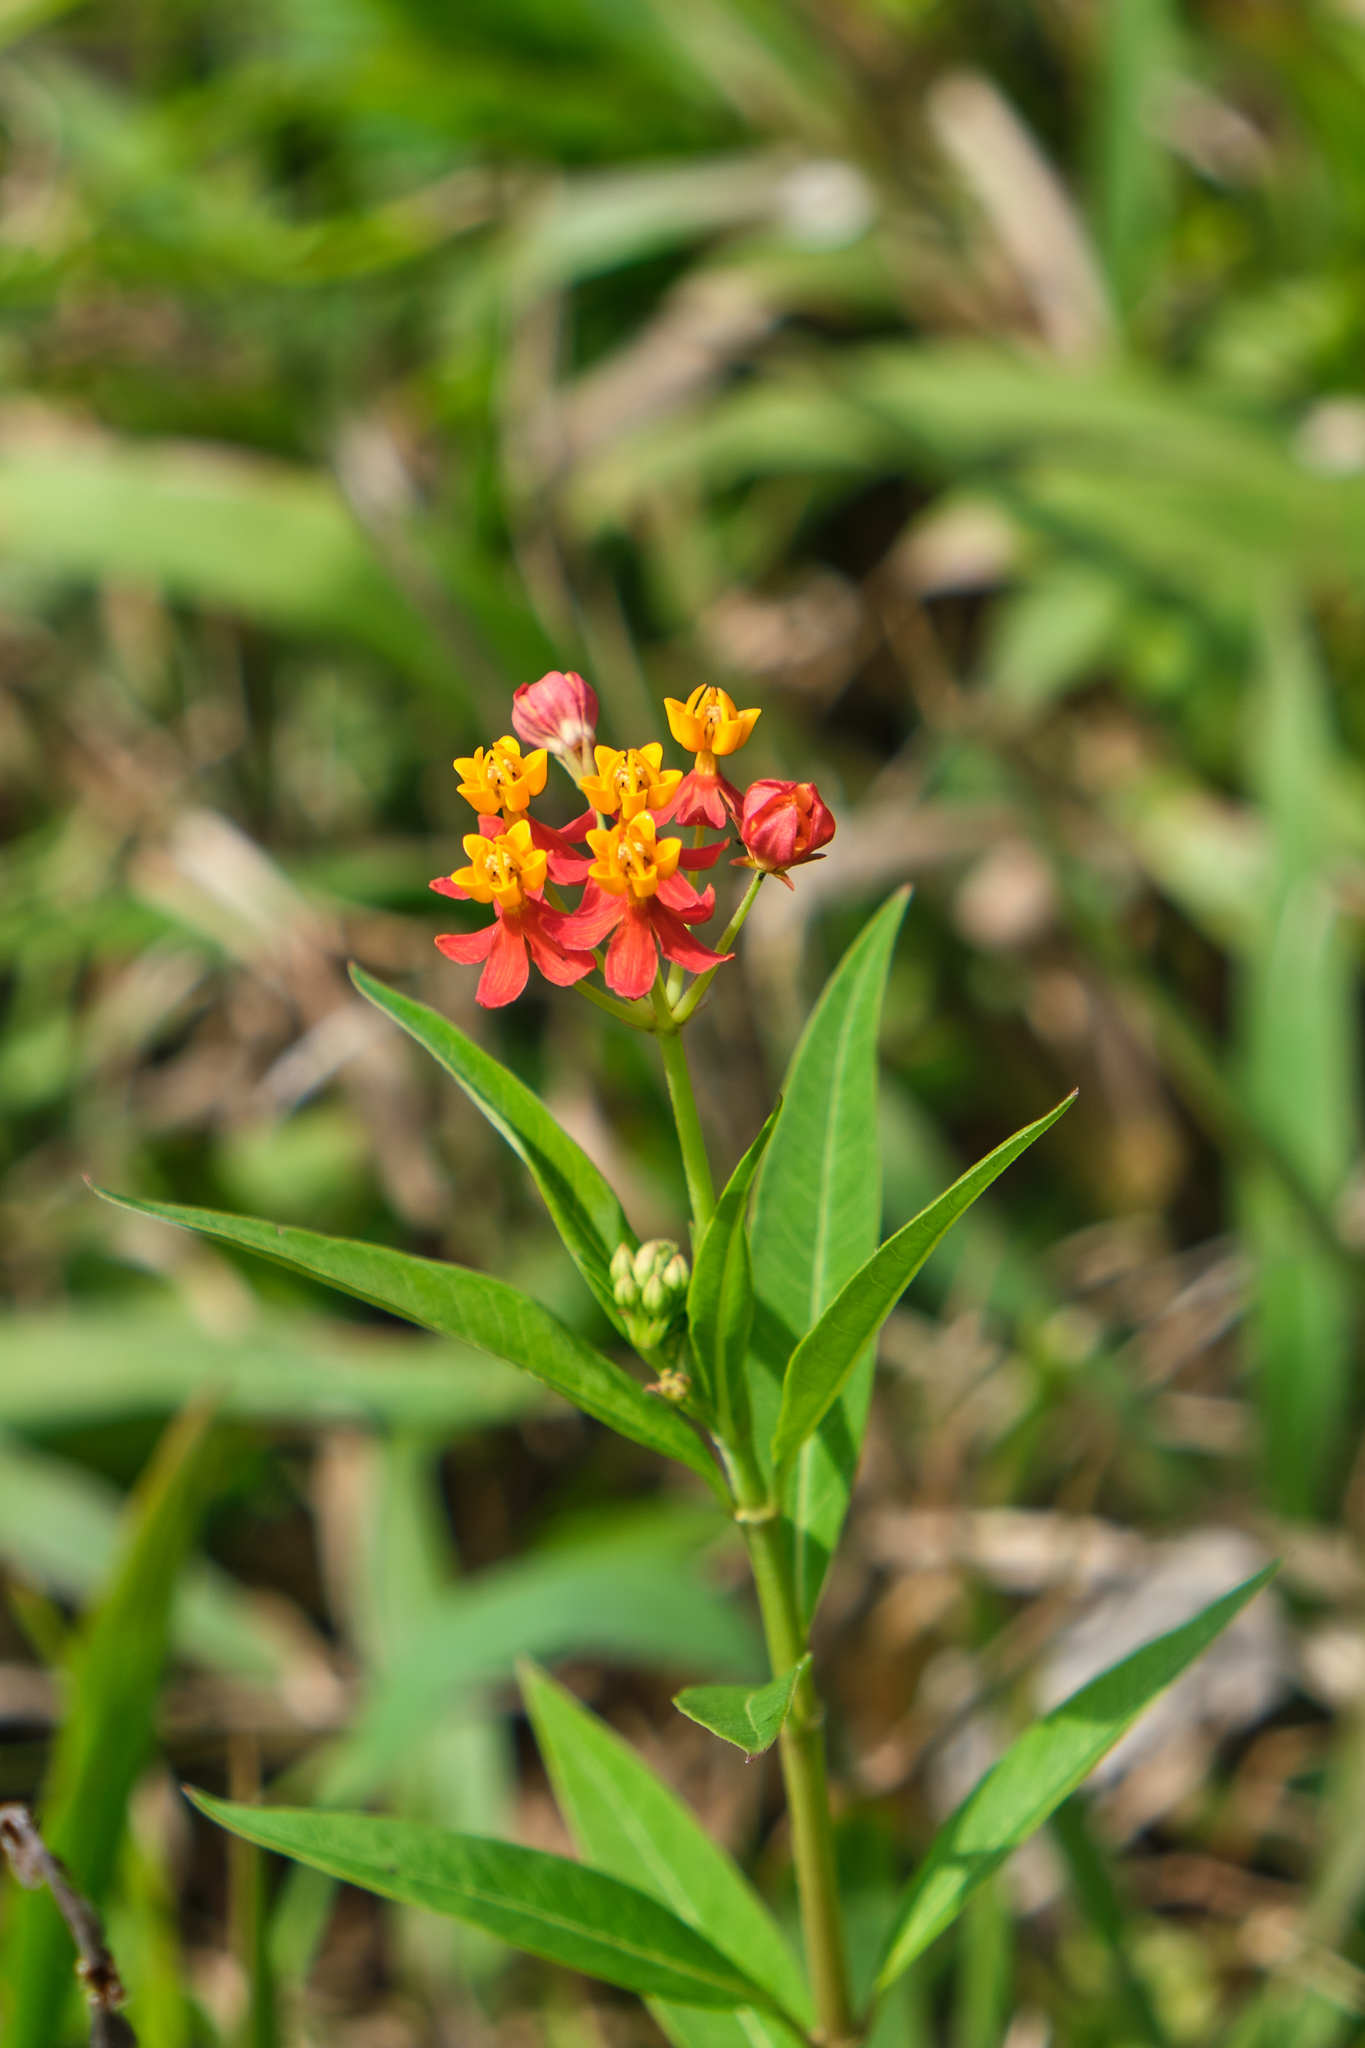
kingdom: Plantae
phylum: Tracheophyta
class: Magnoliopsida
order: Gentianales
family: Apocynaceae
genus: Asclepias
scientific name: Asclepias curassavica
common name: Bloodflower
